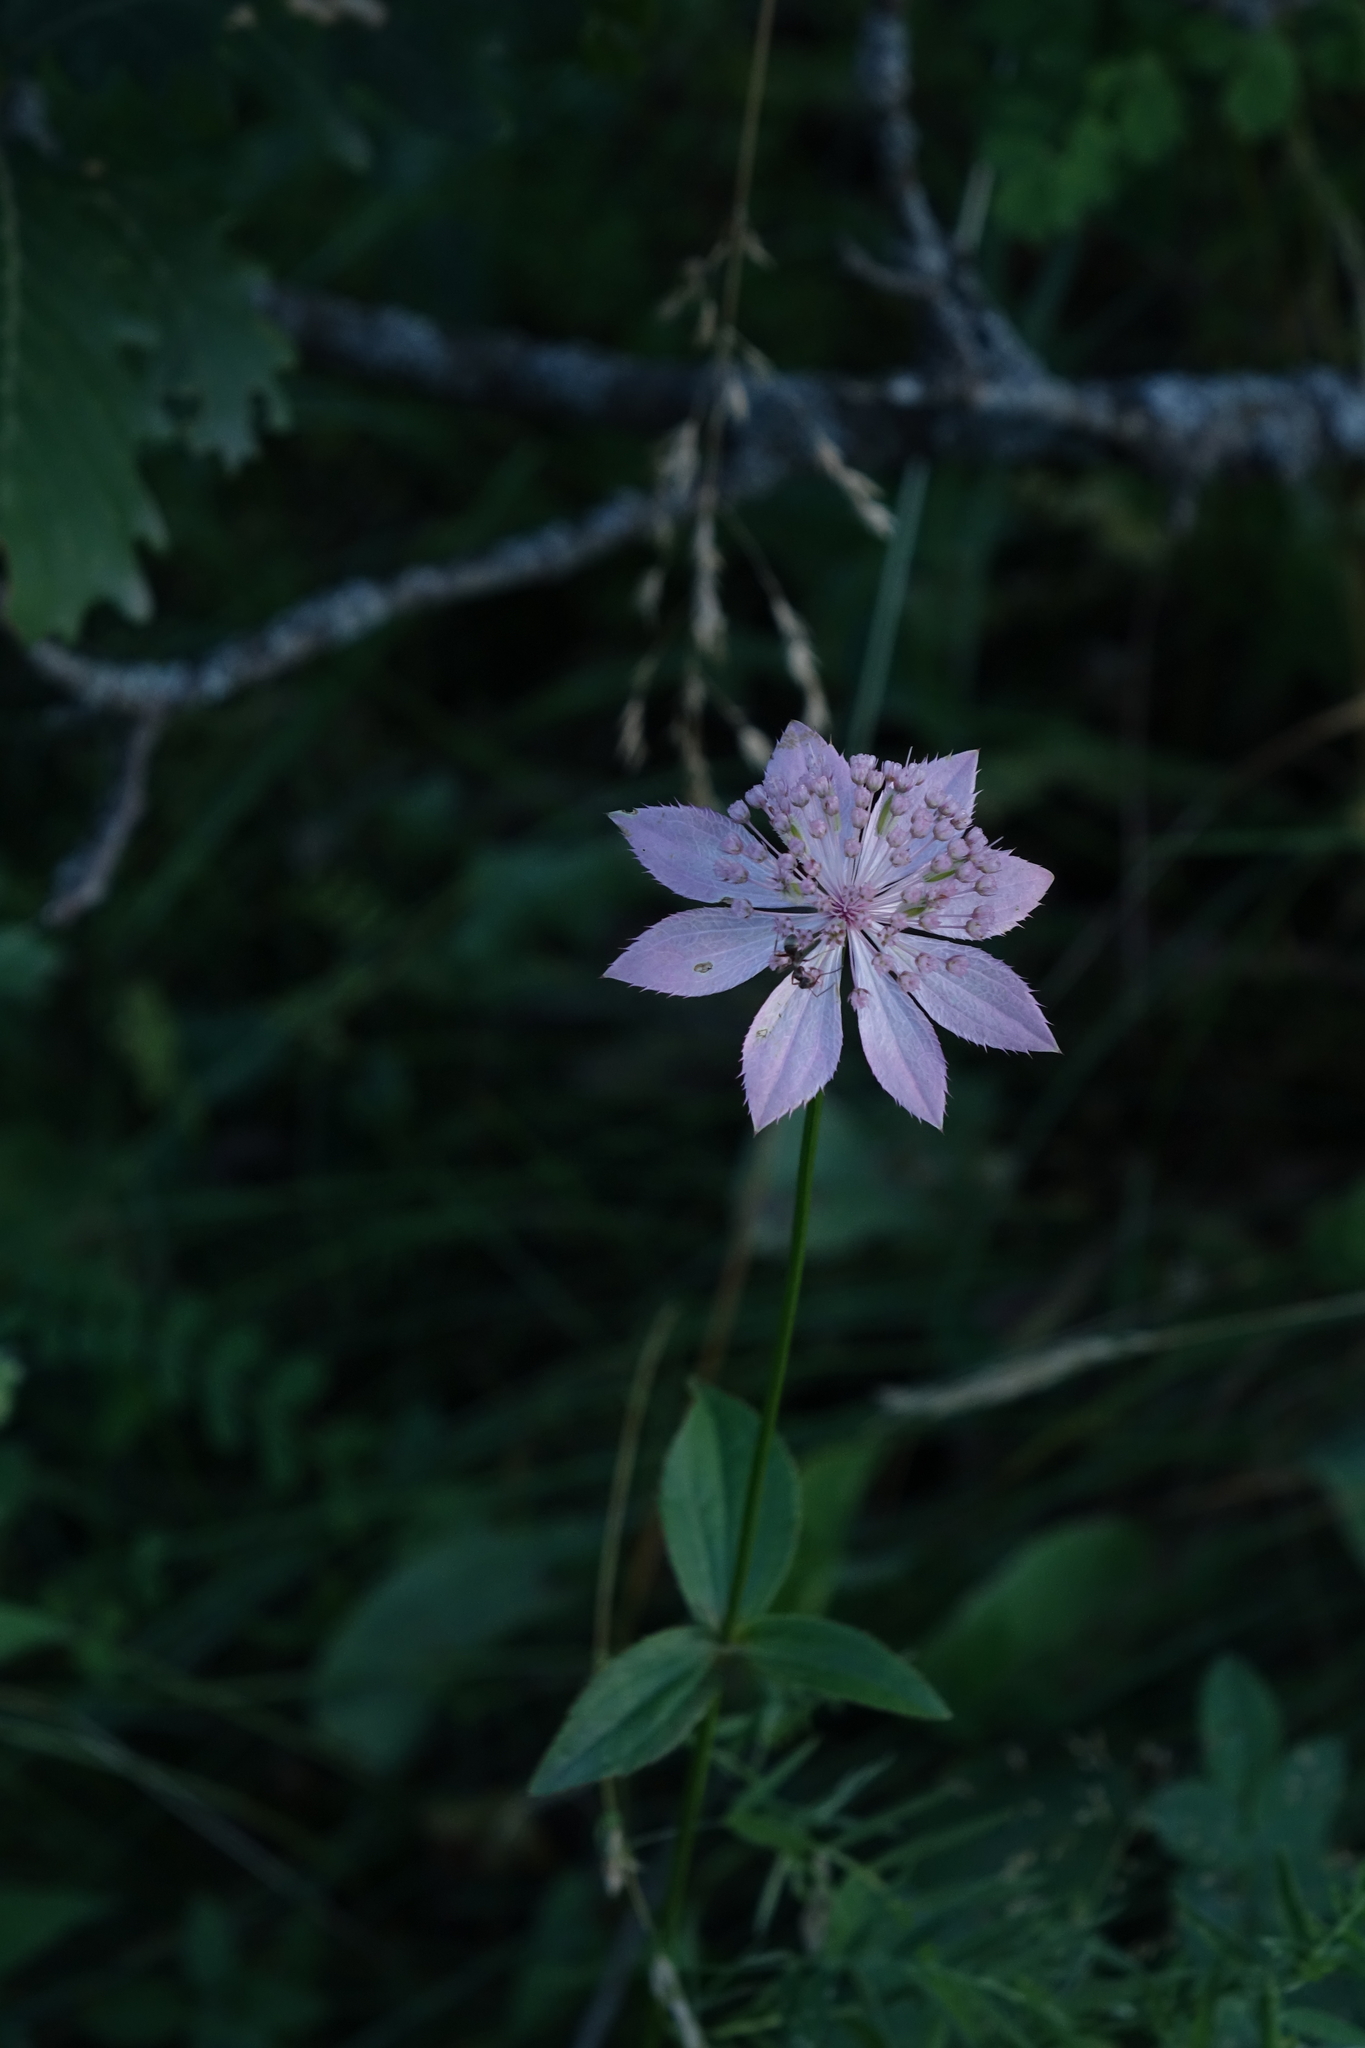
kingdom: Plantae
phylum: Tracheophyta
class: Magnoliopsida
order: Apiales
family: Apiaceae
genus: Astrantia
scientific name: Astrantia maxima
